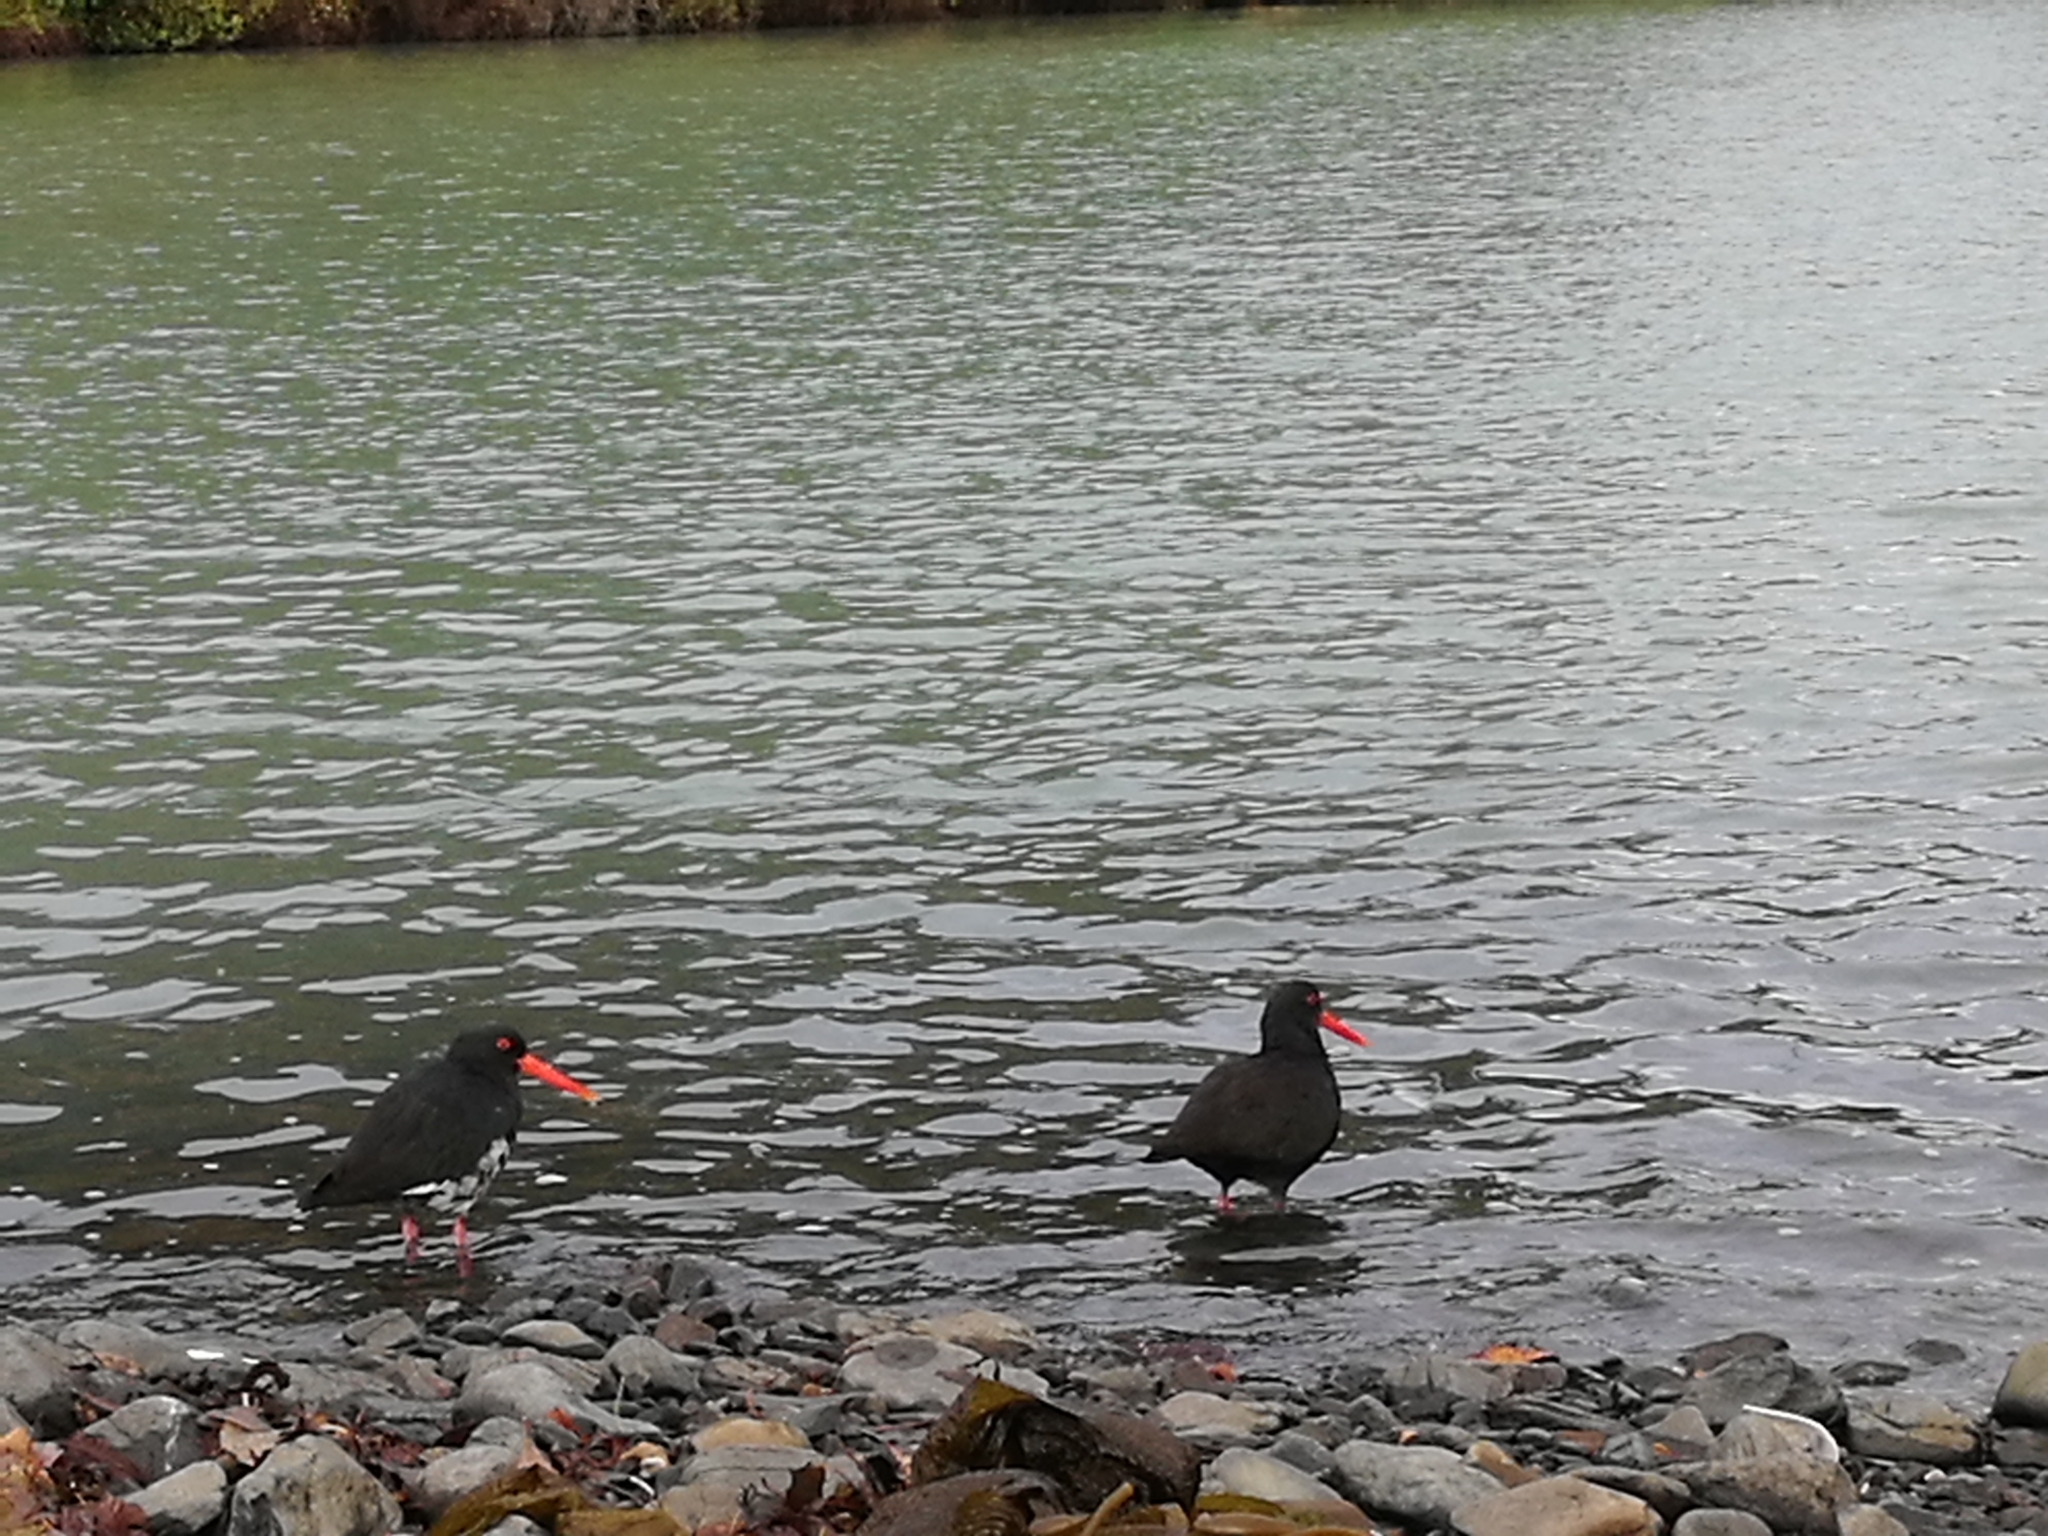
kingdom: Animalia
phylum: Chordata
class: Aves
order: Charadriiformes
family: Haematopodidae
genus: Haematopus
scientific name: Haematopus unicolor
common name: Variable oystercatcher
